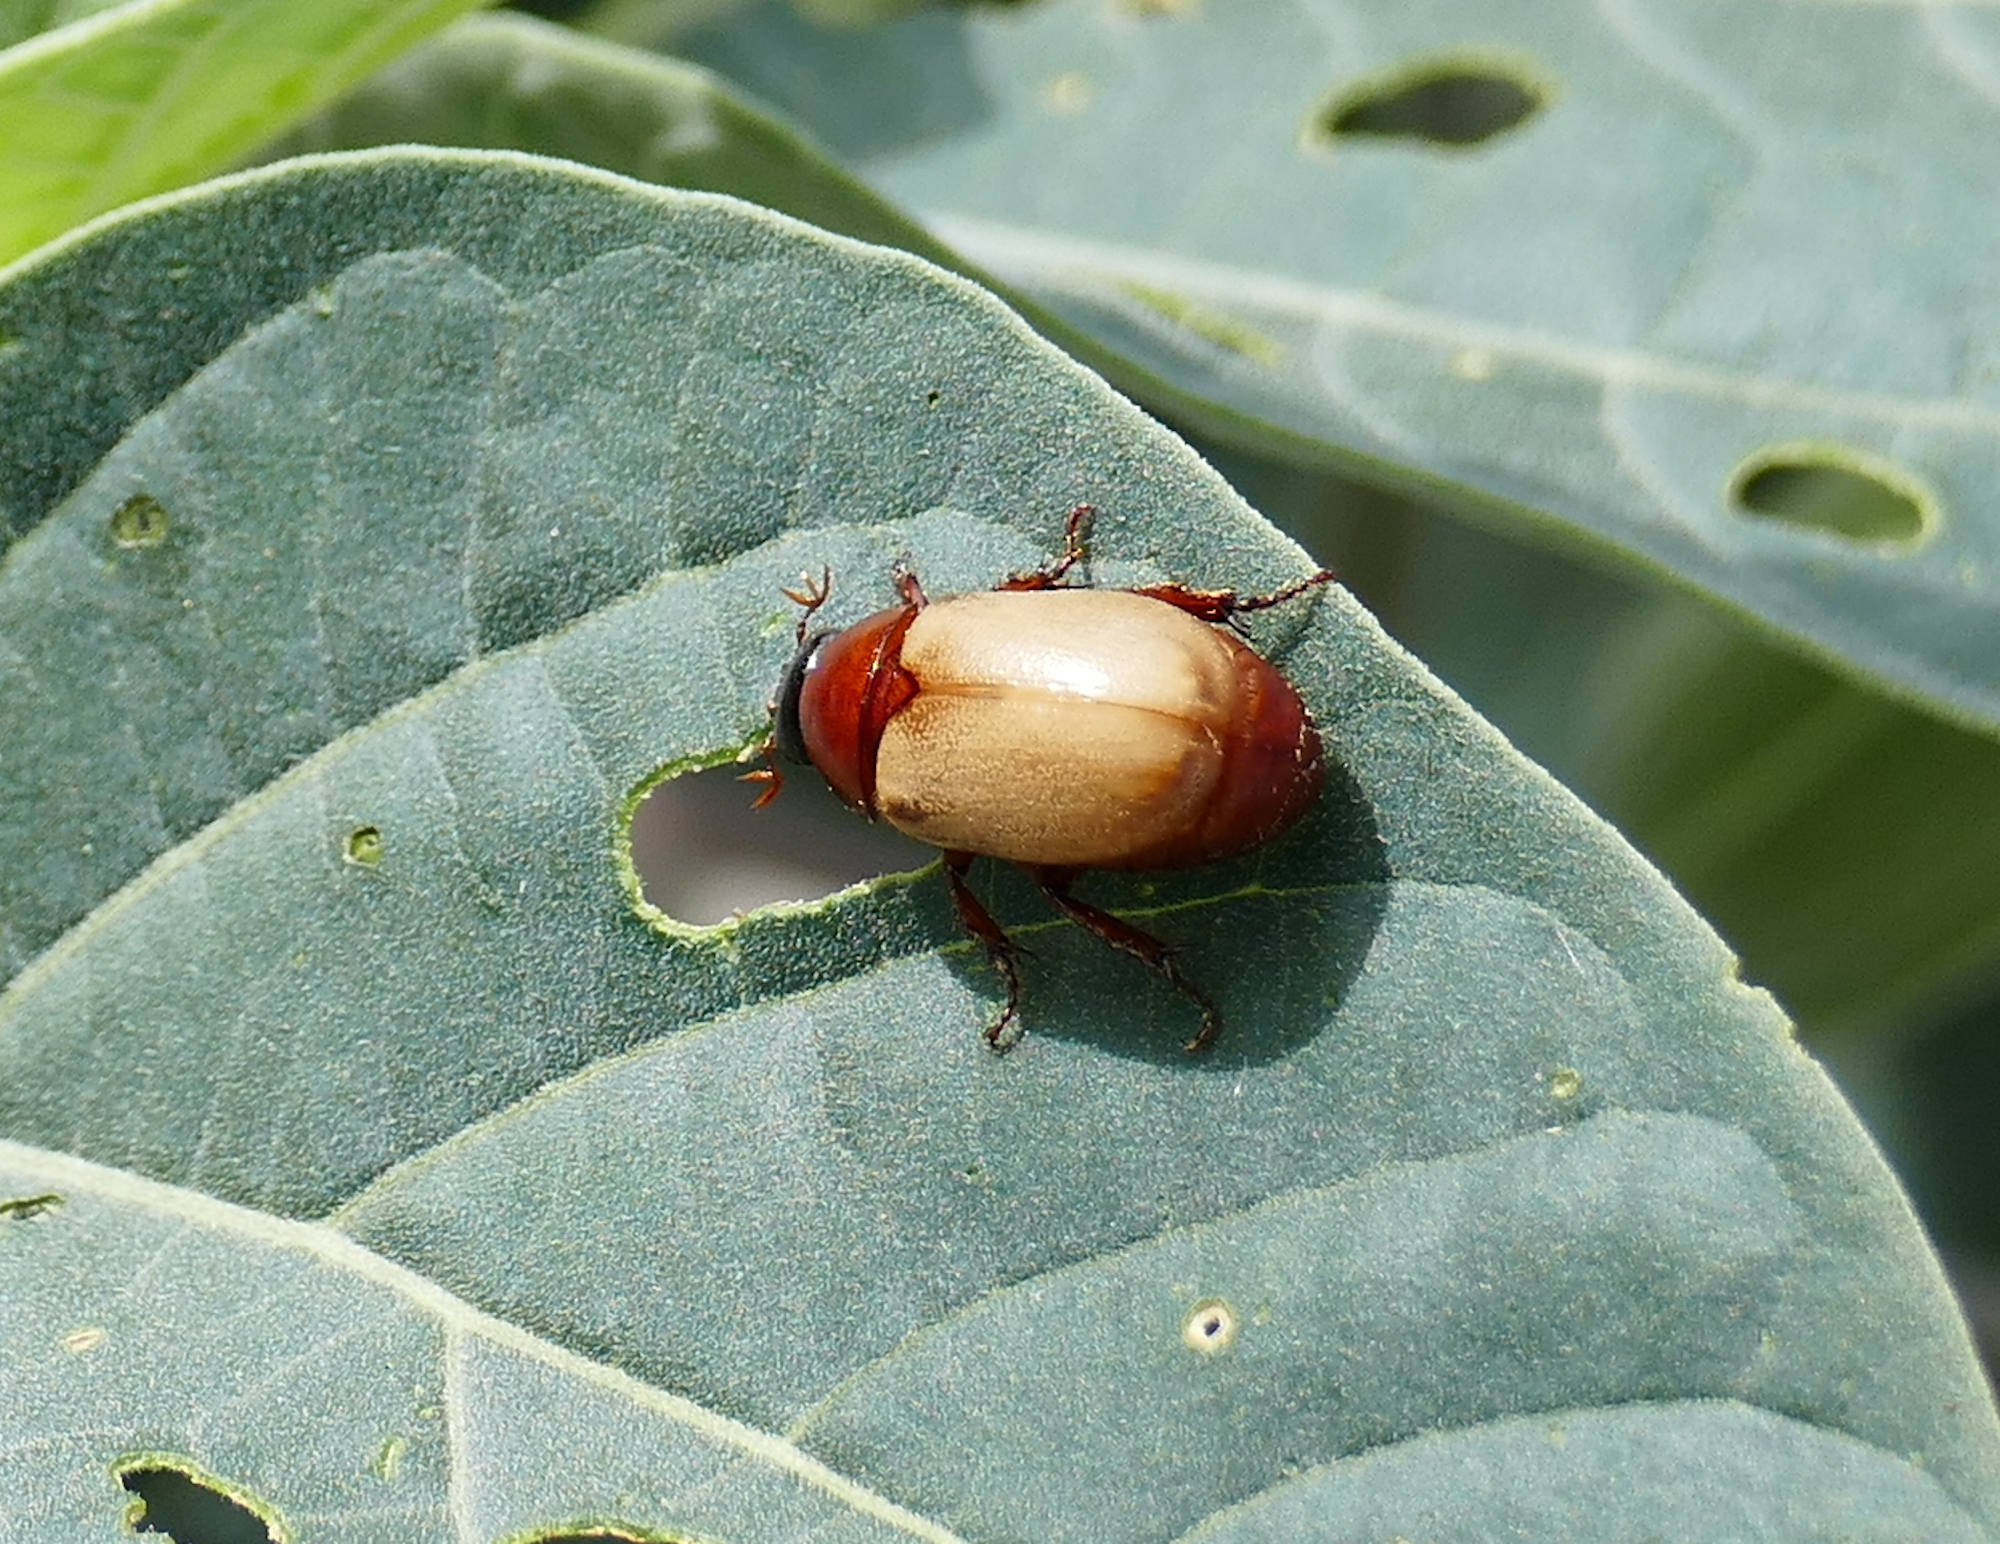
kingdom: Animalia
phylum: Arthropoda
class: Insecta
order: Coleoptera
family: Scarabaeidae
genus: Cyclocephala
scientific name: Cyclocephala melanocephala
